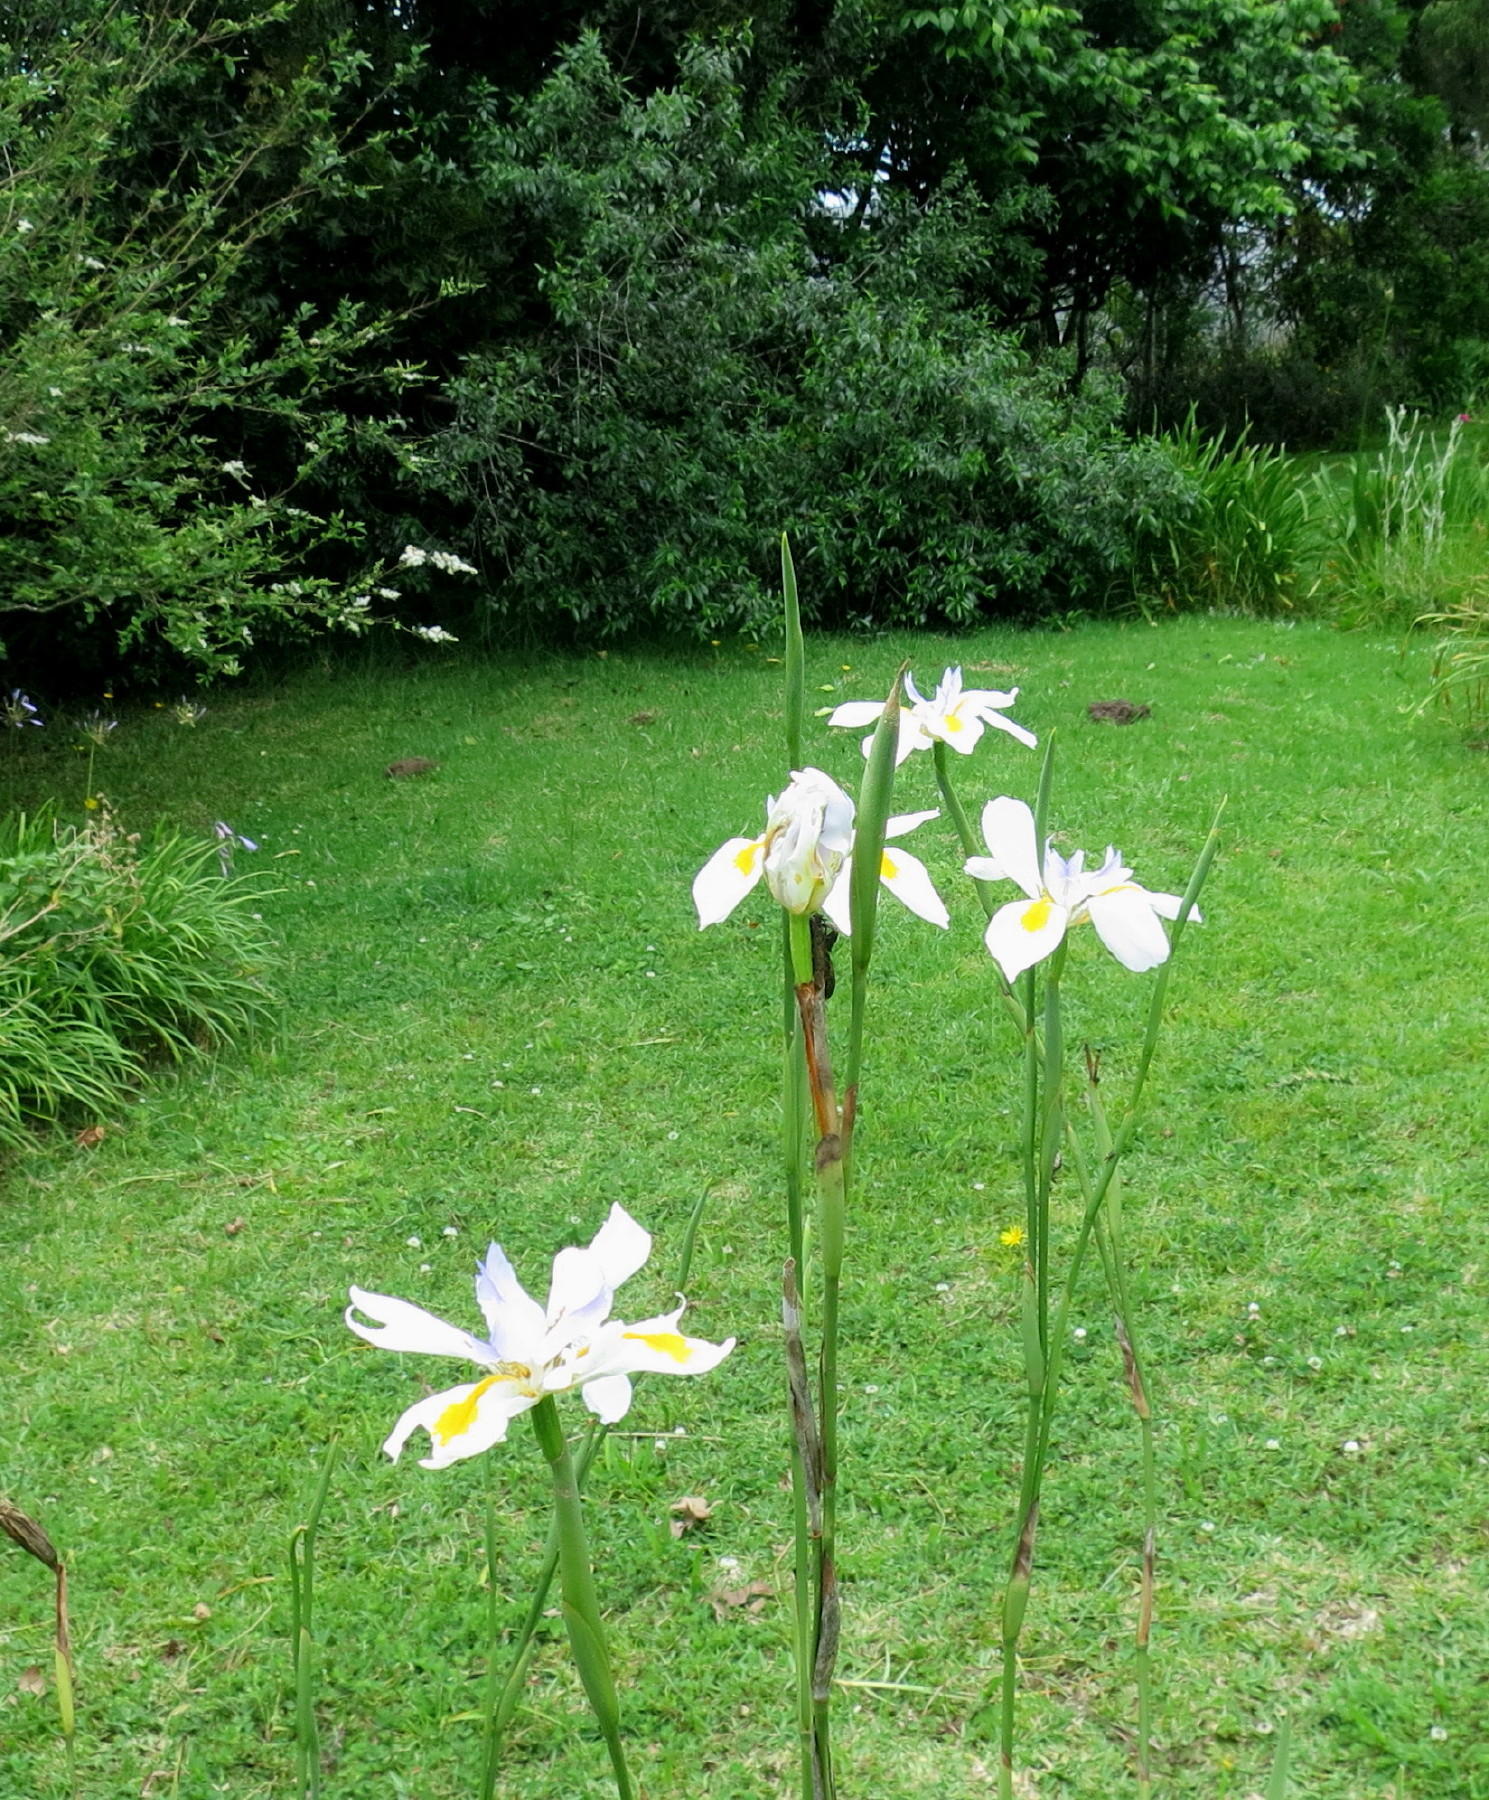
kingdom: Plantae
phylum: Tracheophyta
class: Liliopsida
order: Asparagales
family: Iridaceae
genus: Dietes
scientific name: Dietes grandiflora
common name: Wild iris
